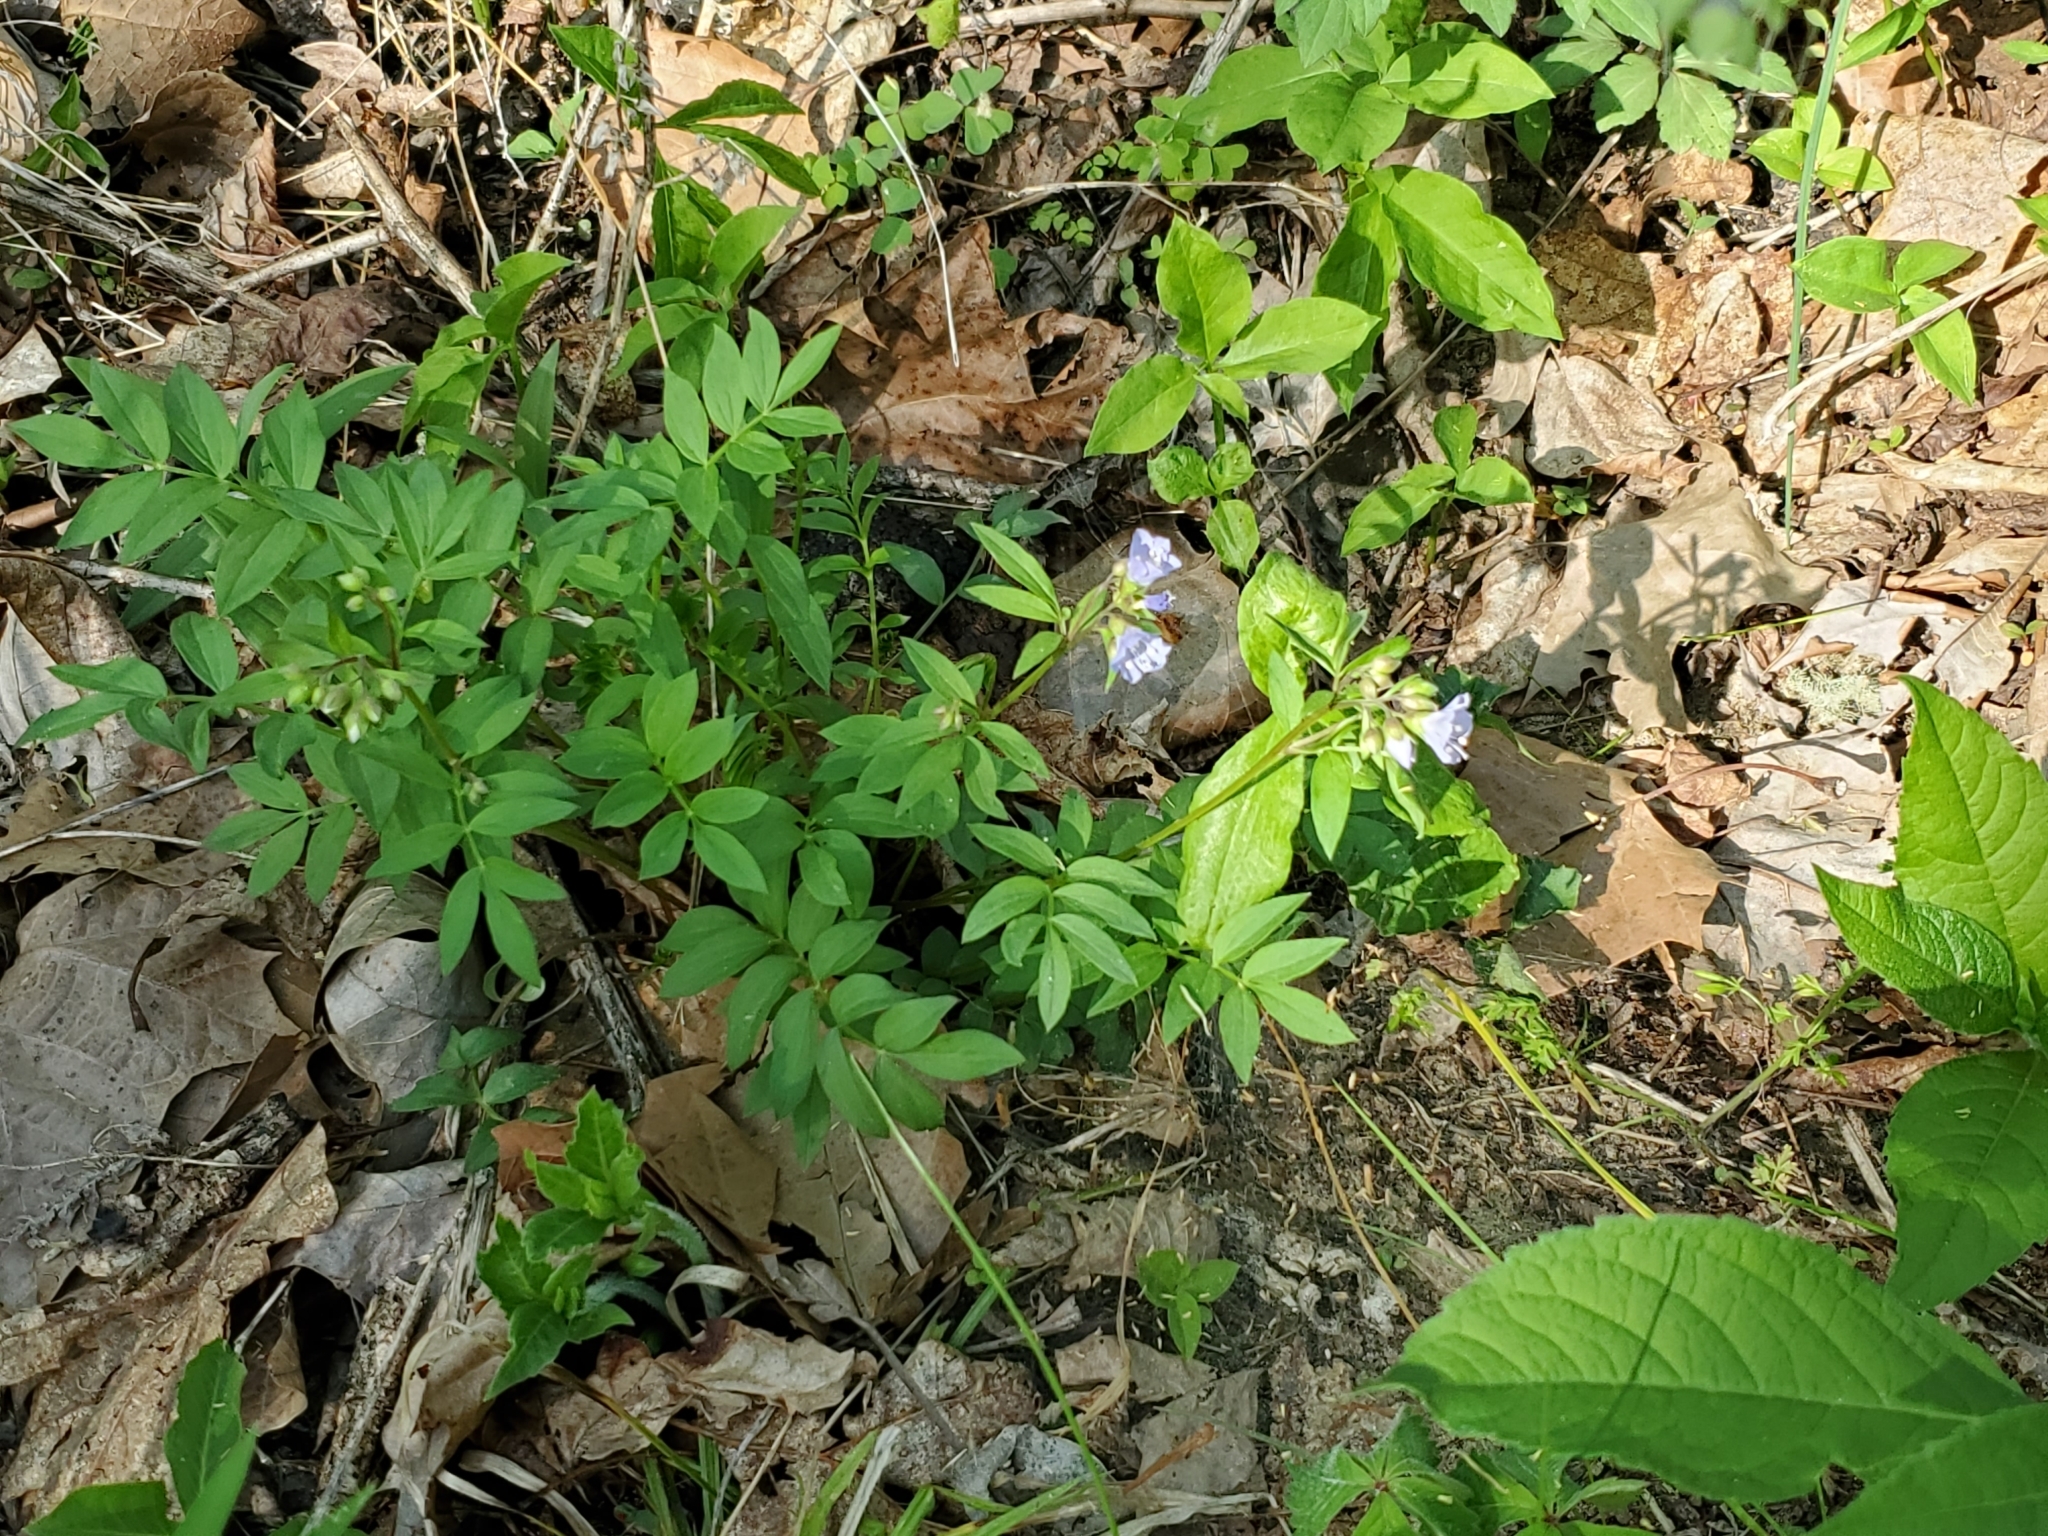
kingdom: Plantae
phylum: Tracheophyta
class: Magnoliopsida
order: Ericales
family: Polemoniaceae
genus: Polemonium
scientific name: Polemonium reptans
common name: Creeping jacob's-ladder
